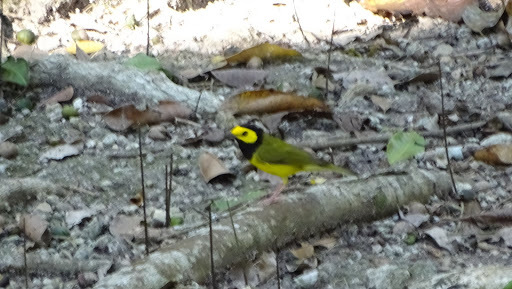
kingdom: Animalia
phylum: Chordata
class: Aves
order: Passeriformes
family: Parulidae
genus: Setophaga
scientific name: Setophaga citrina
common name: Hooded warbler
